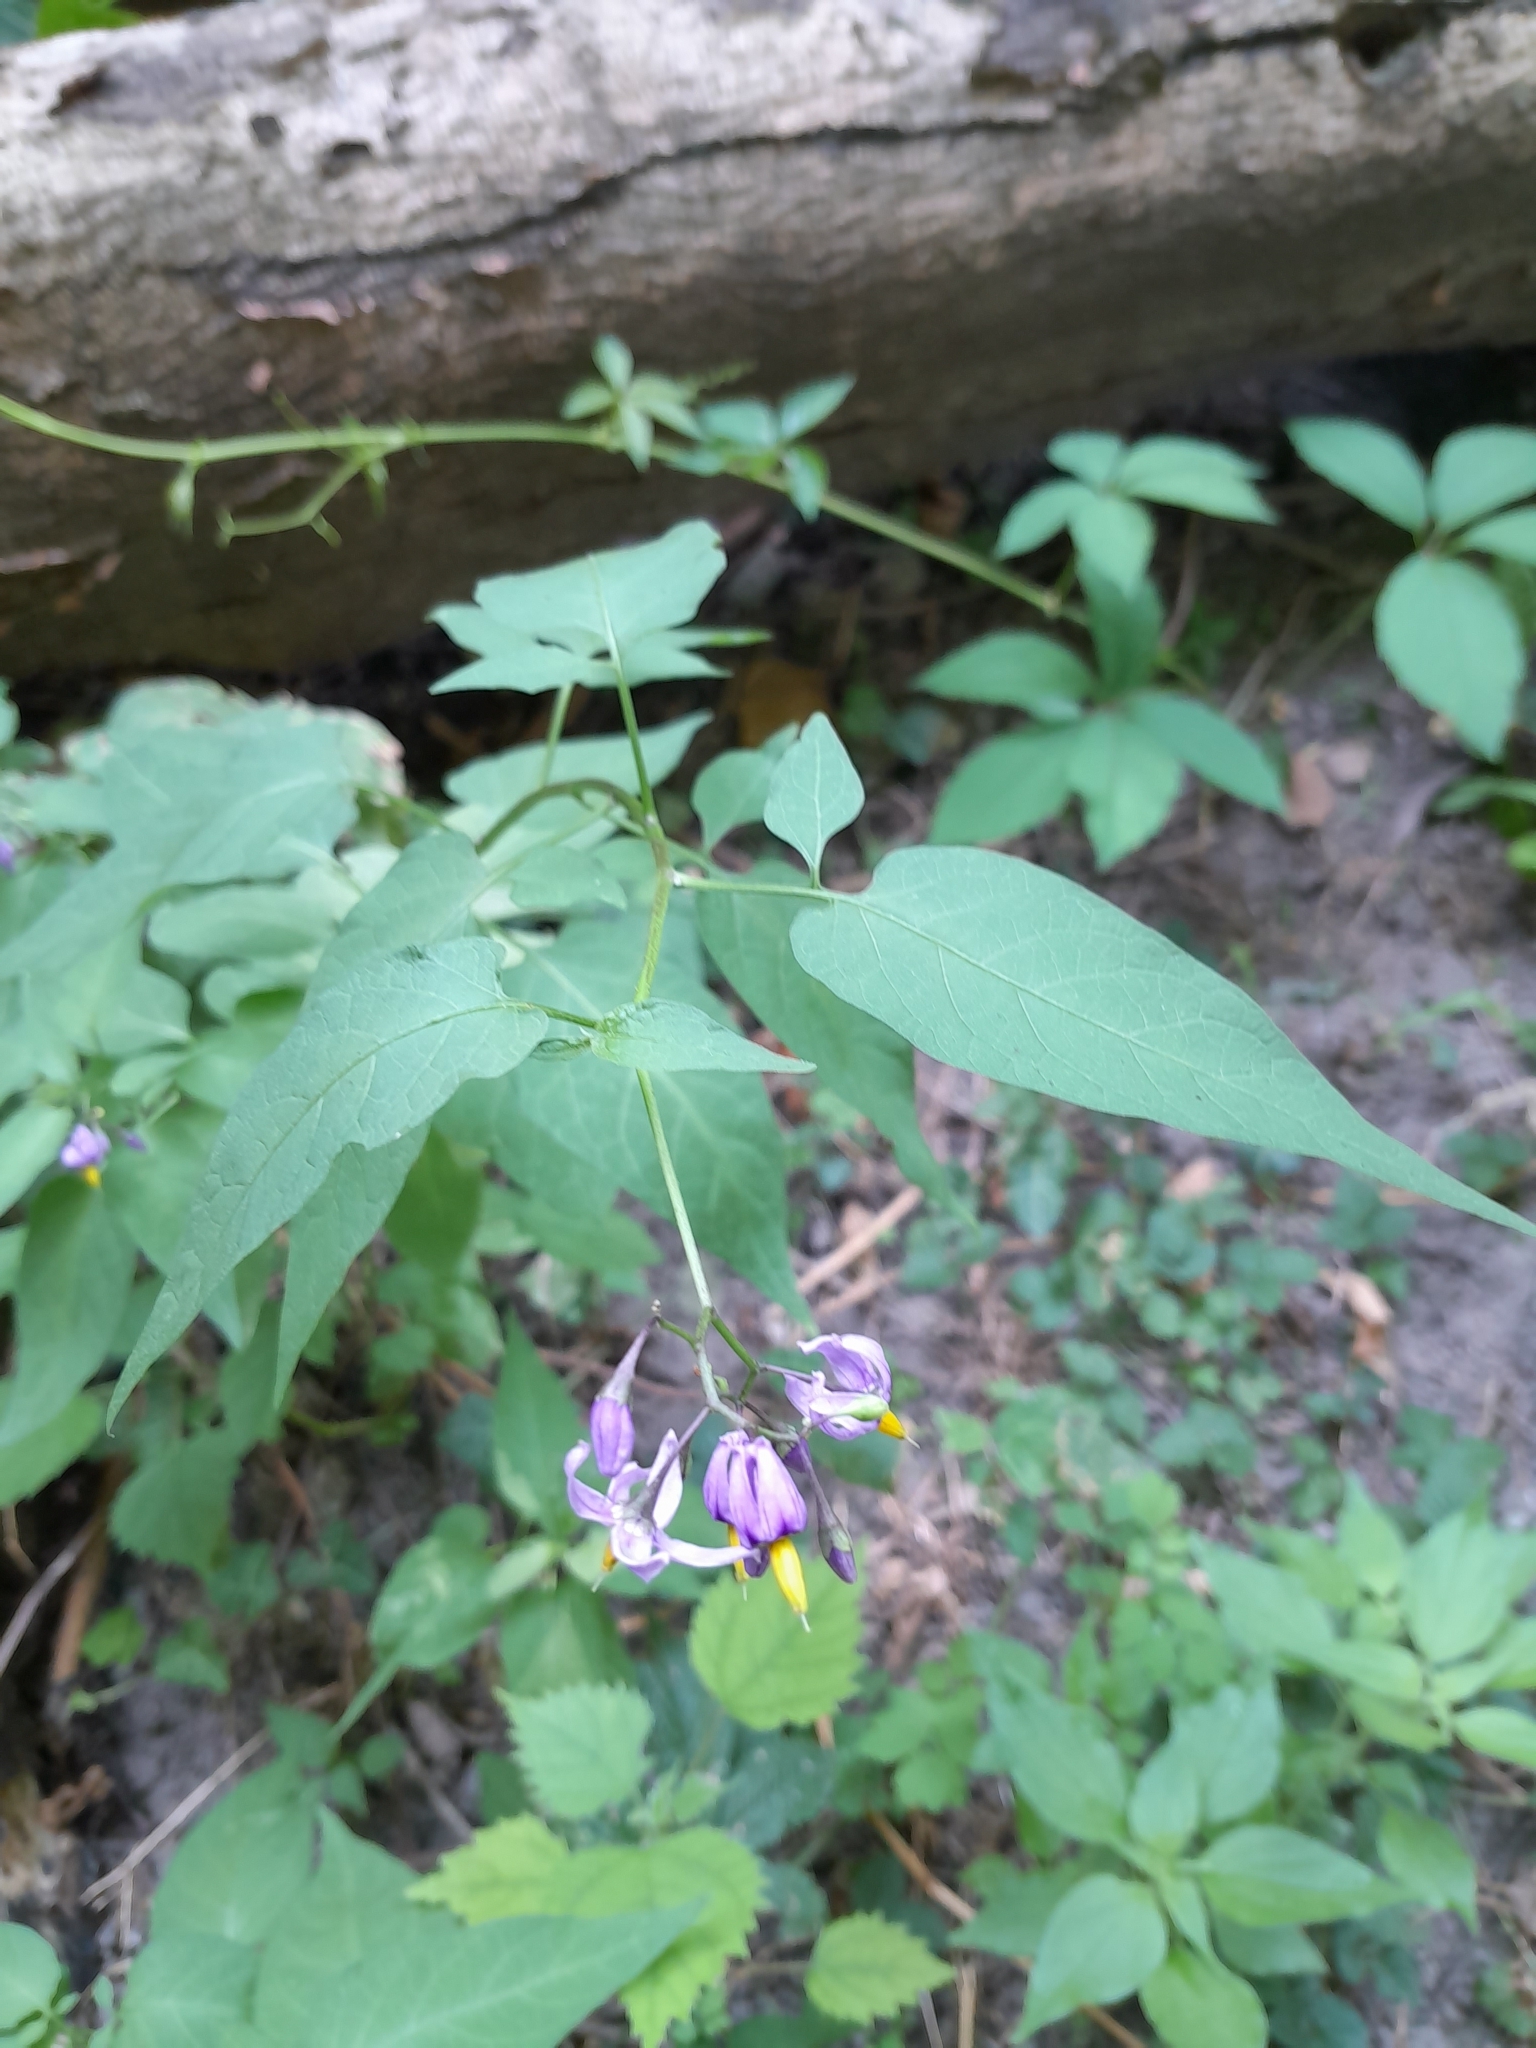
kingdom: Plantae
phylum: Tracheophyta
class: Magnoliopsida
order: Solanales
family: Solanaceae
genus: Solanum
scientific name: Solanum dulcamara
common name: Climbing nightshade
